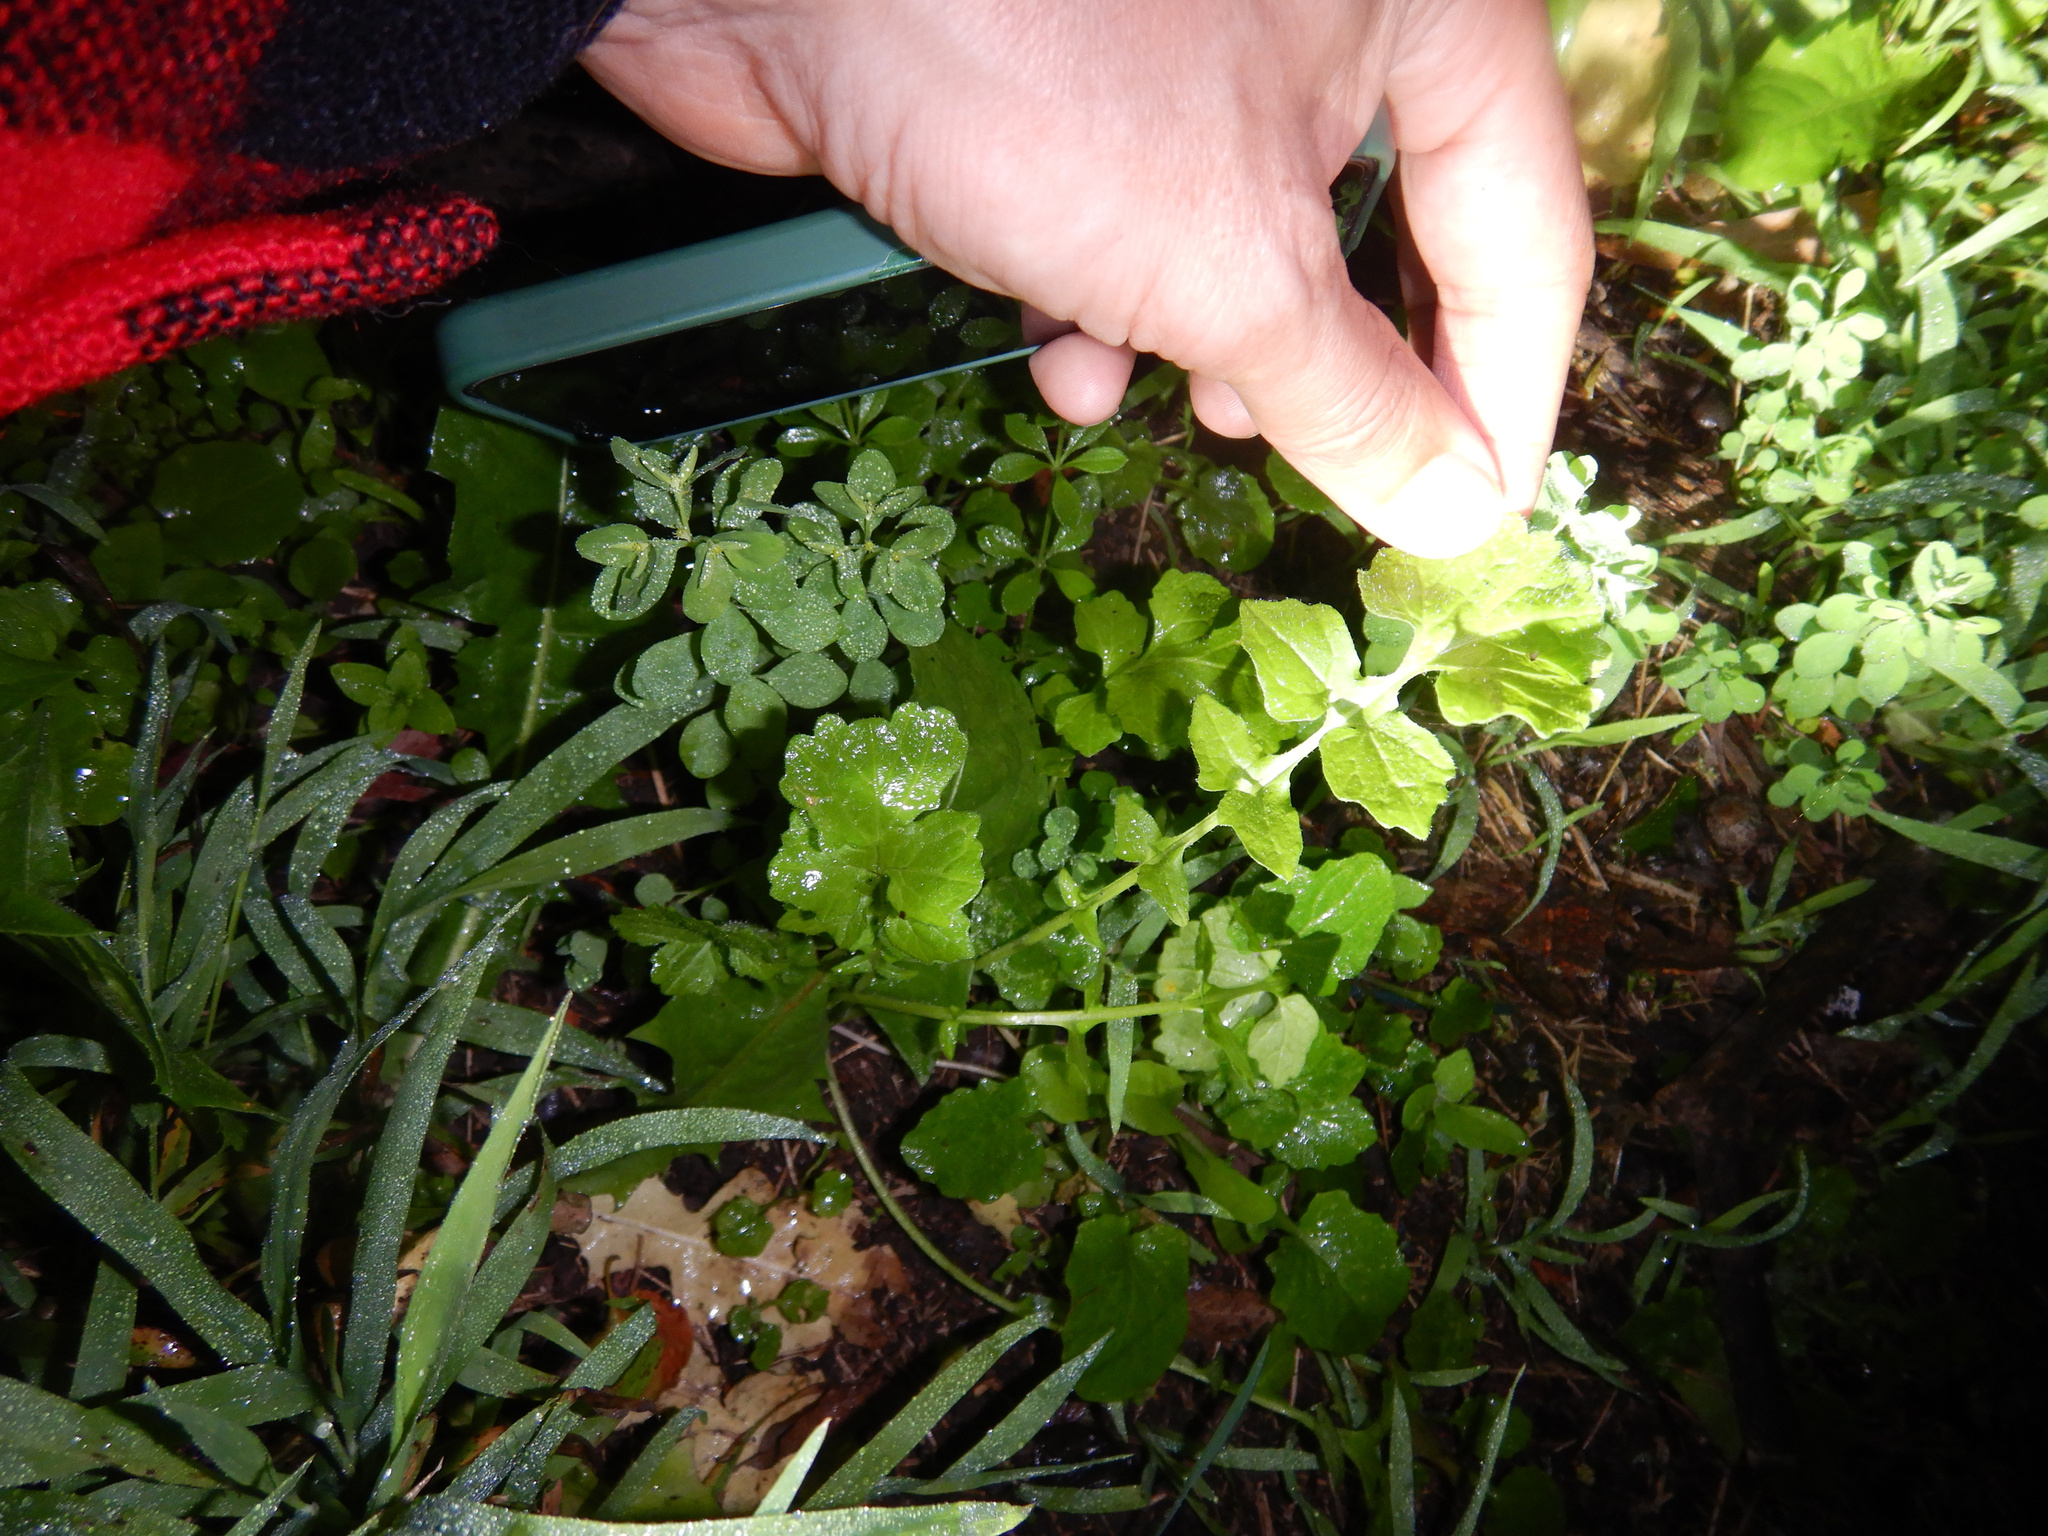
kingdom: Plantae
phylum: Tracheophyta
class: Magnoliopsida
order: Brassicales
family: Brassicaceae
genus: Sisymbrium
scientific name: Sisymbrium officinale
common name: Hedge mustard
